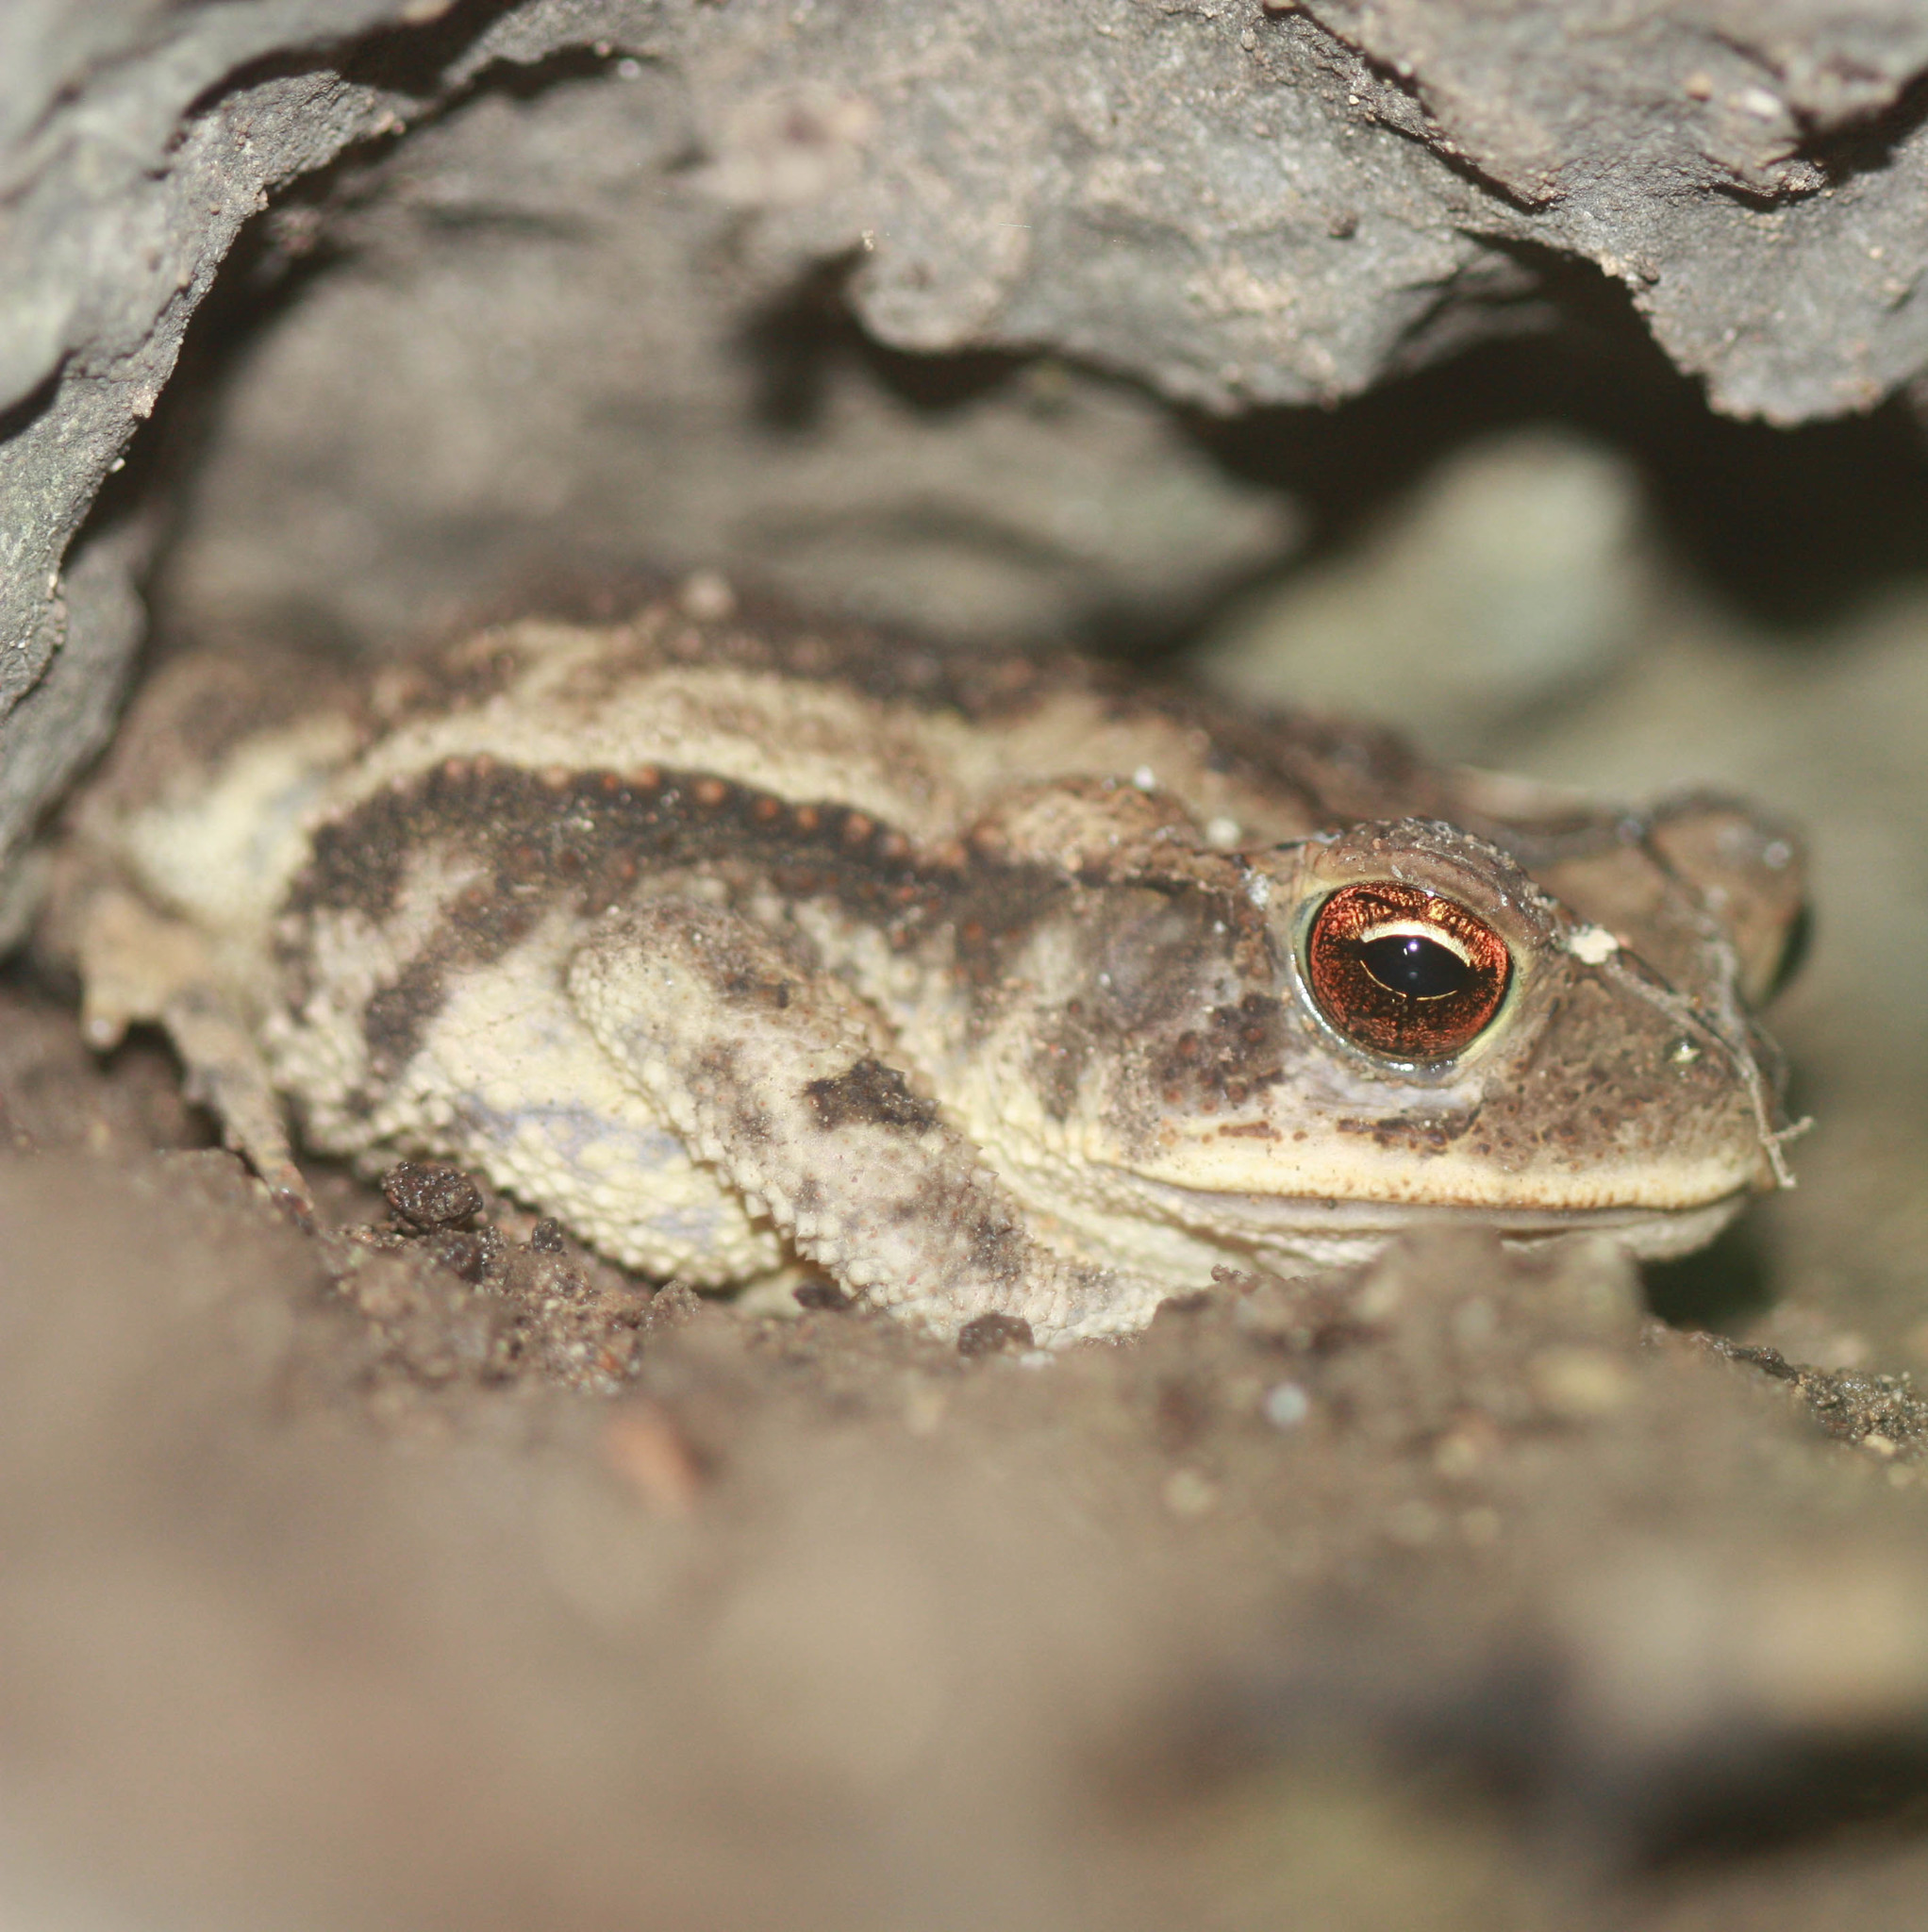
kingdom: Animalia
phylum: Chordata
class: Amphibia
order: Anura
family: Bufonidae
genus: Incilius
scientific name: Incilius nebulifer
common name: Gulf coast toad
